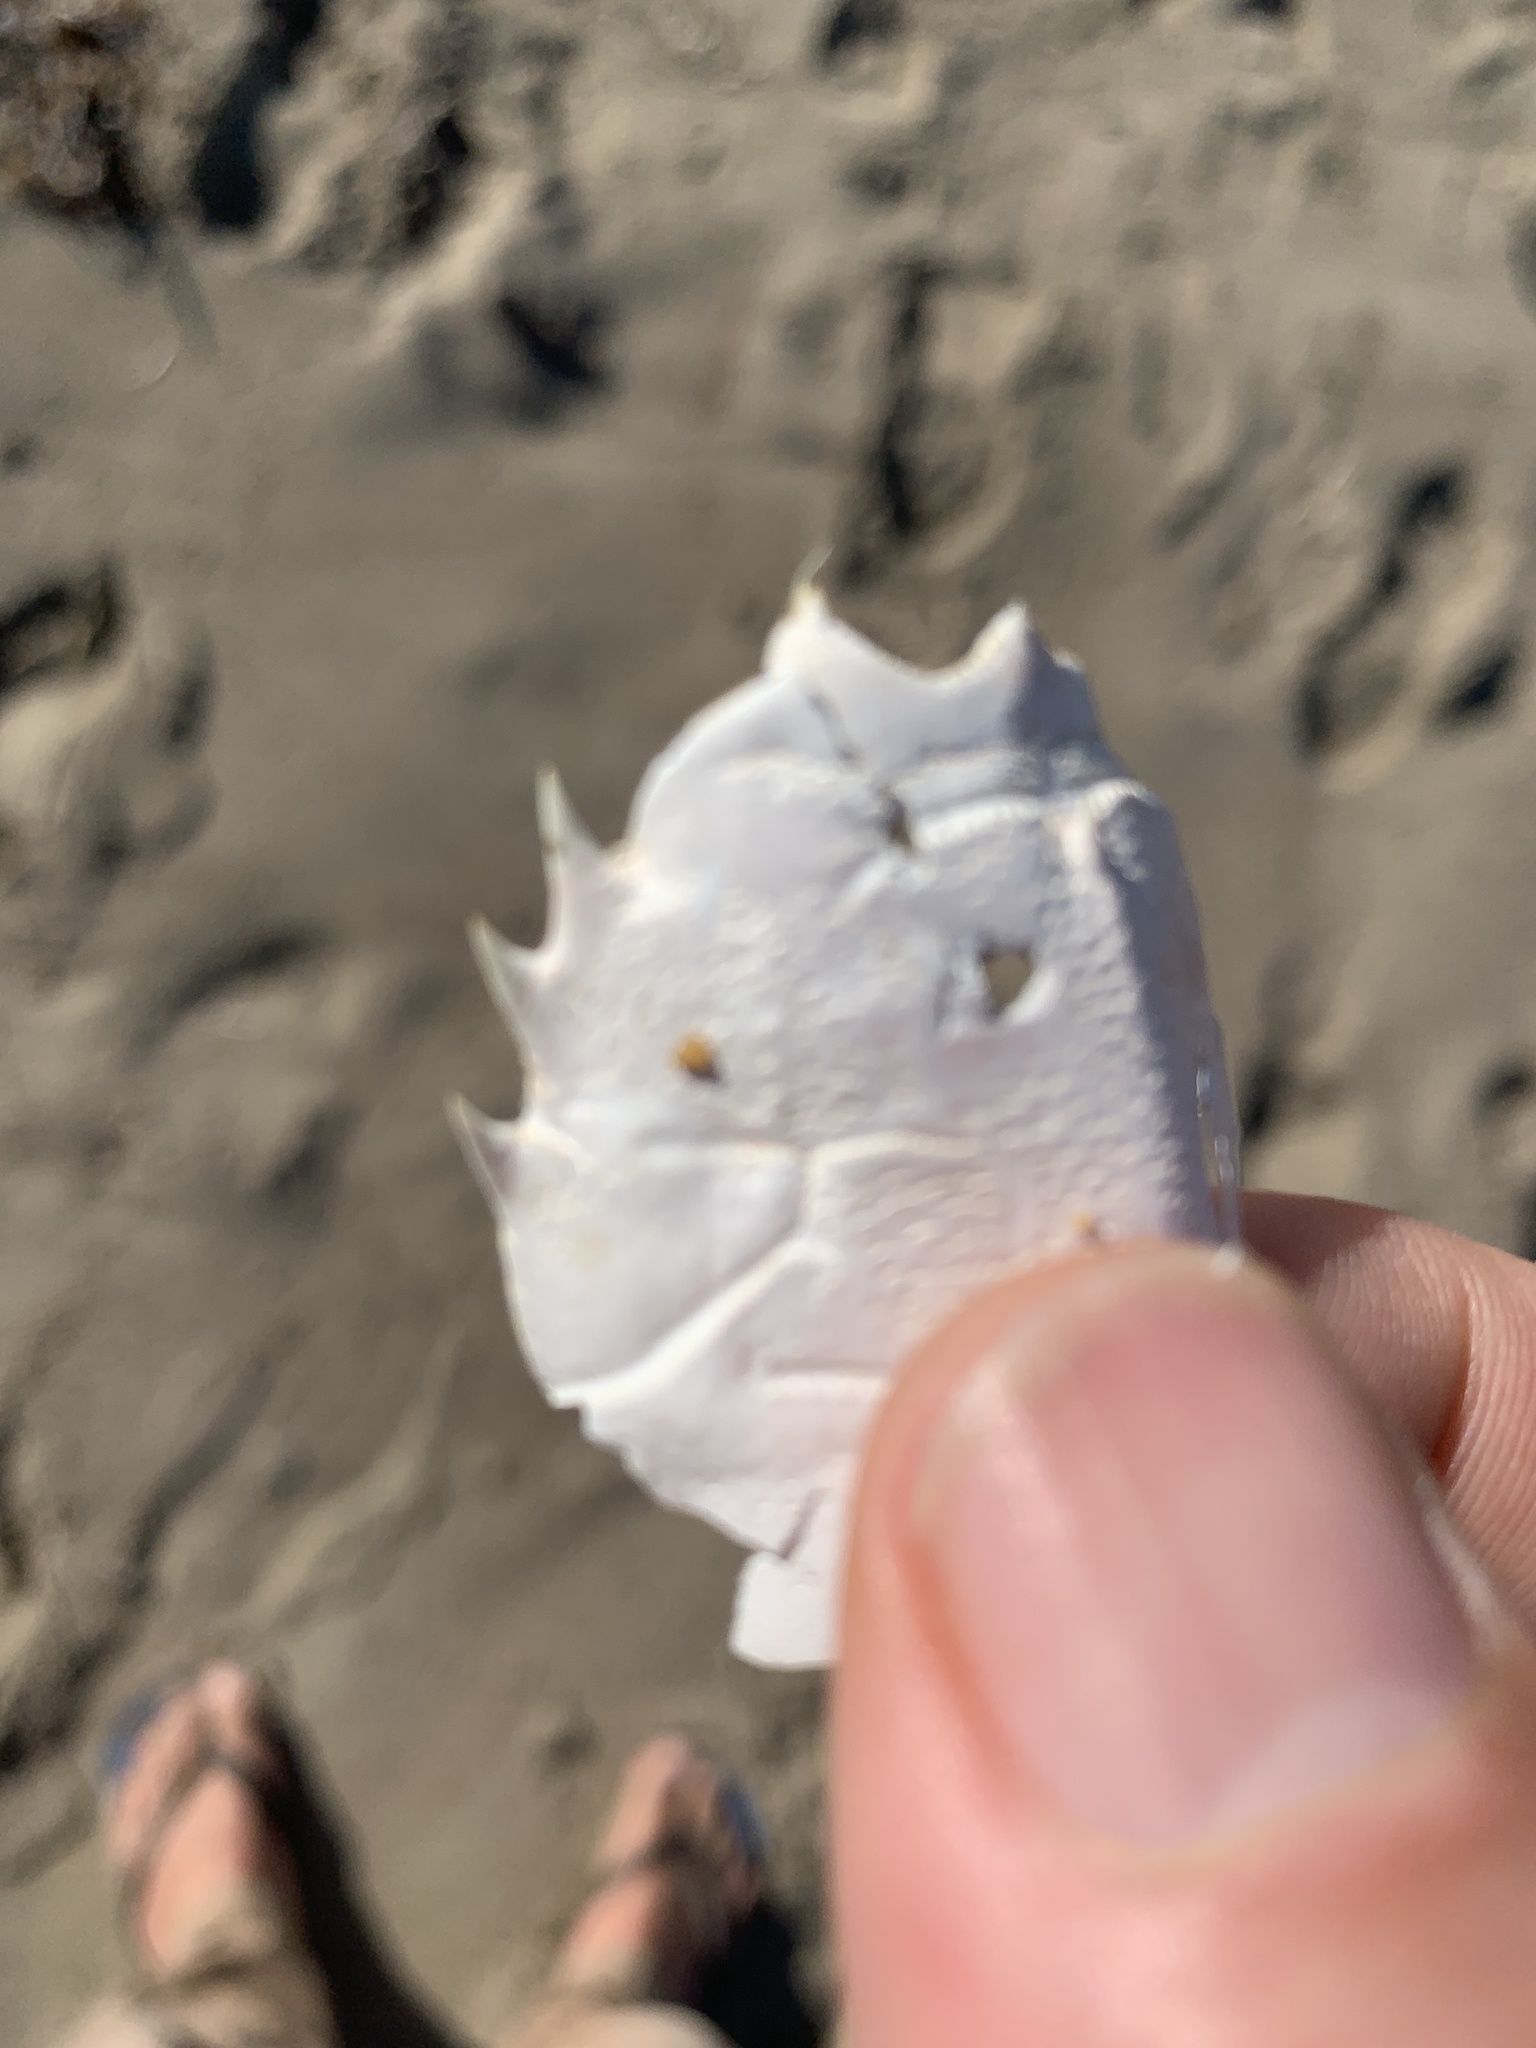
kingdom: Animalia
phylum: Arthropoda
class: Malacostraca
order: Decapoda
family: Blepharipodidae
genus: Blepharipoda
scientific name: Blepharipoda occidentalis
